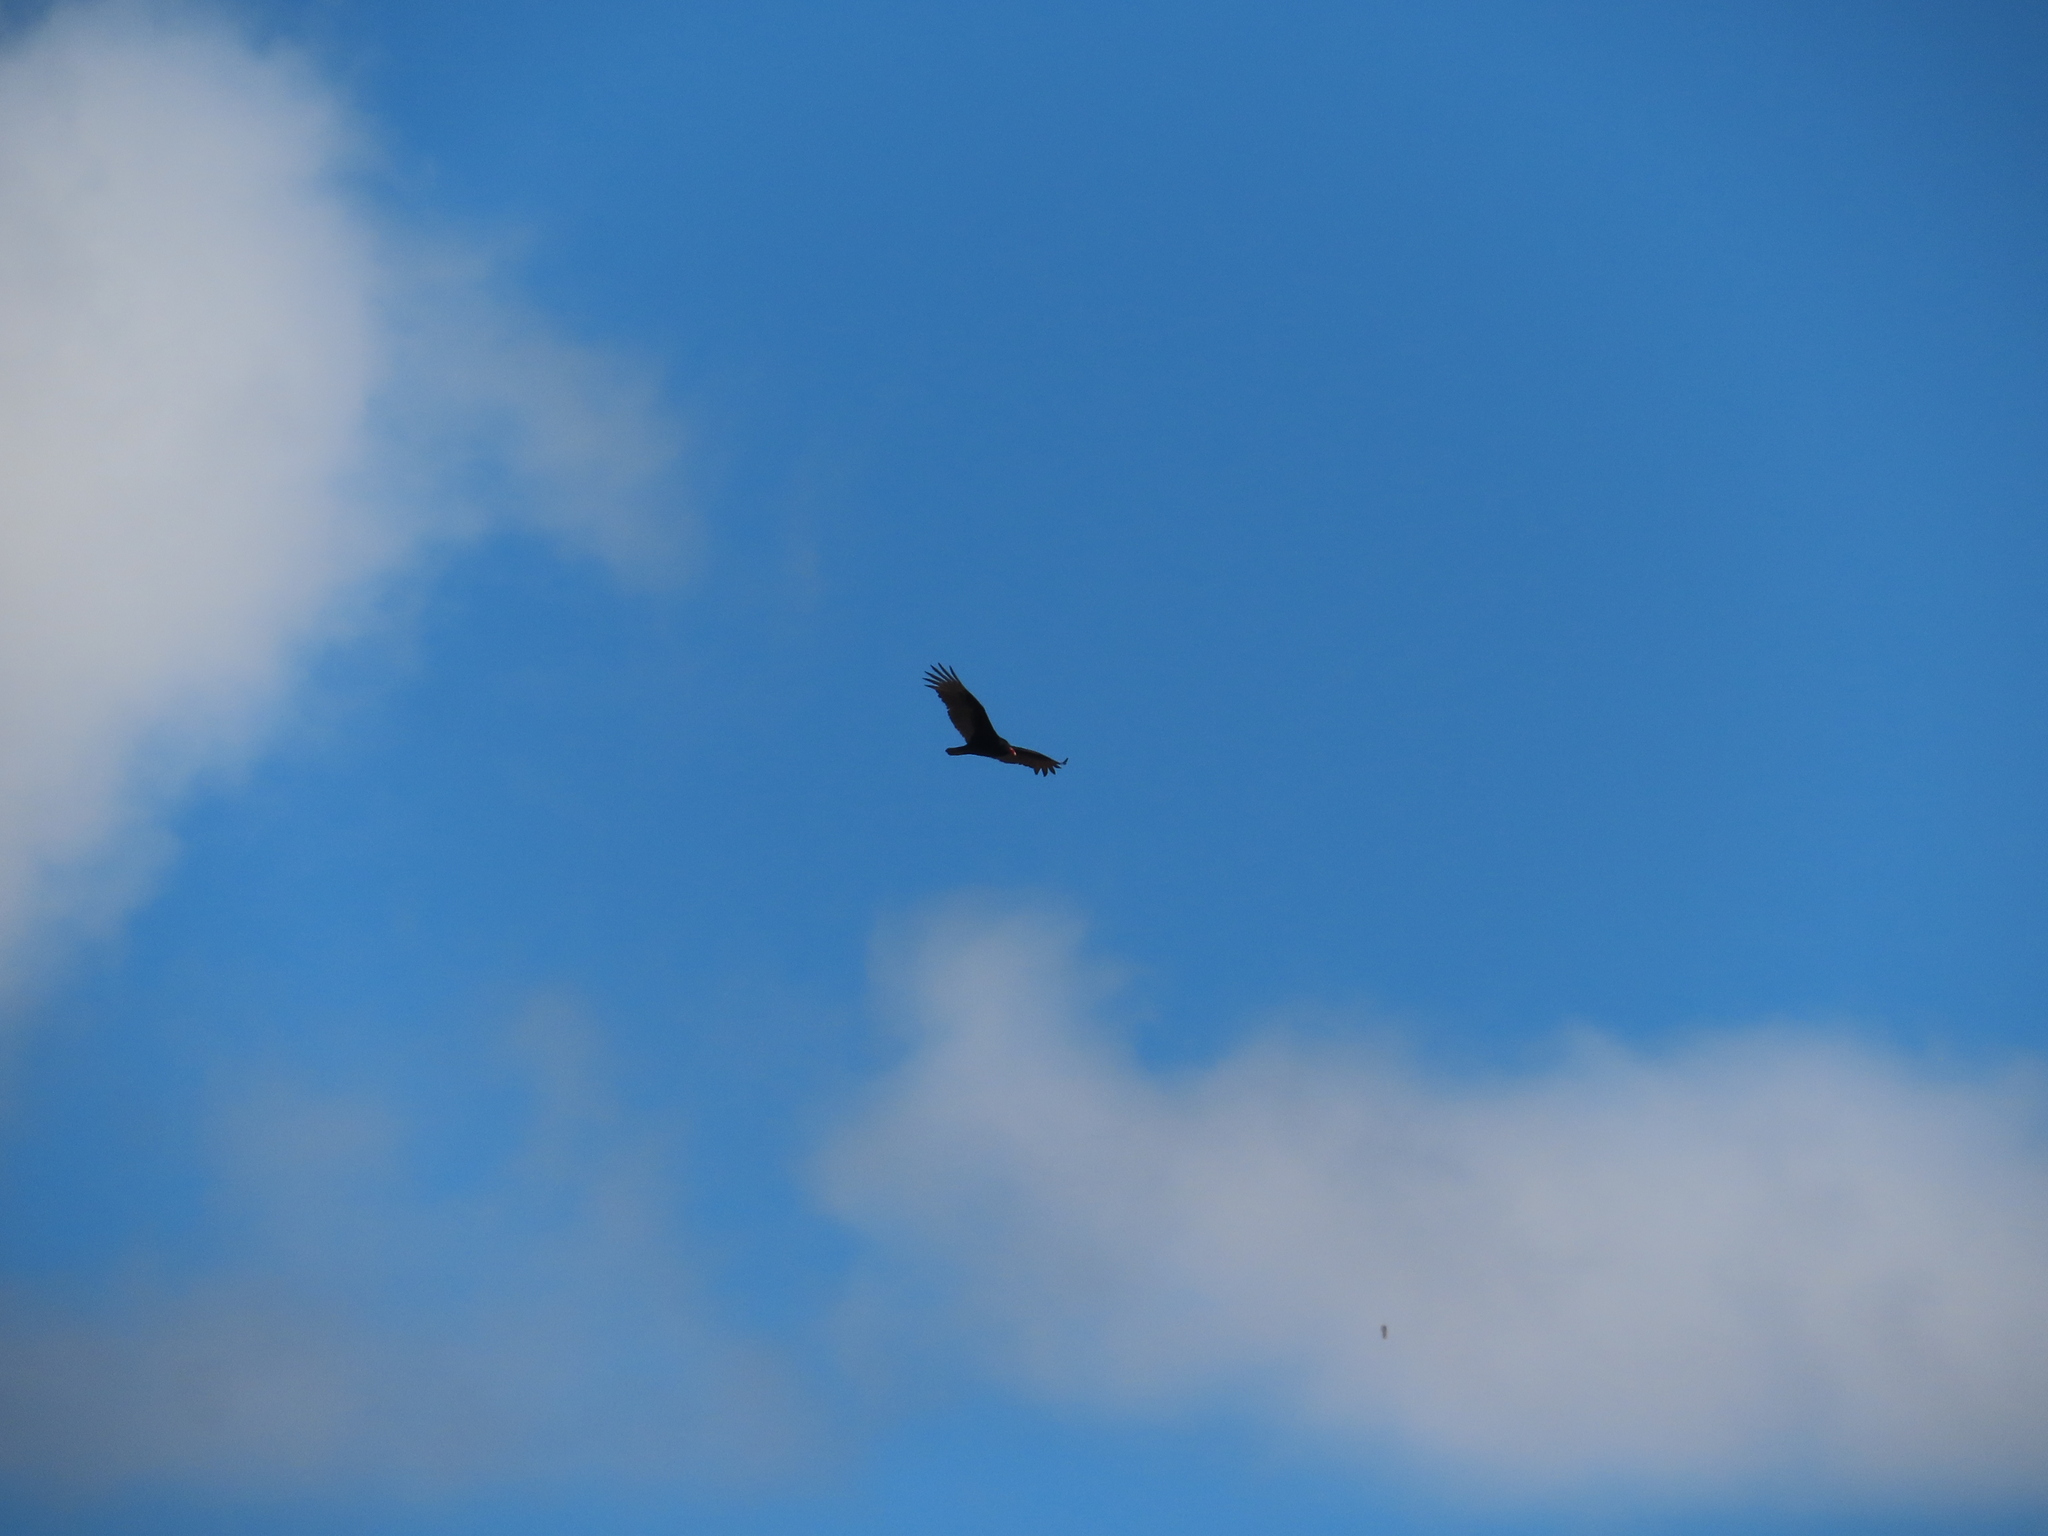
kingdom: Animalia
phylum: Chordata
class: Aves
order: Accipitriformes
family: Cathartidae
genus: Cathartes
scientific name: Cathartes aura
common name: Turkey vulture
